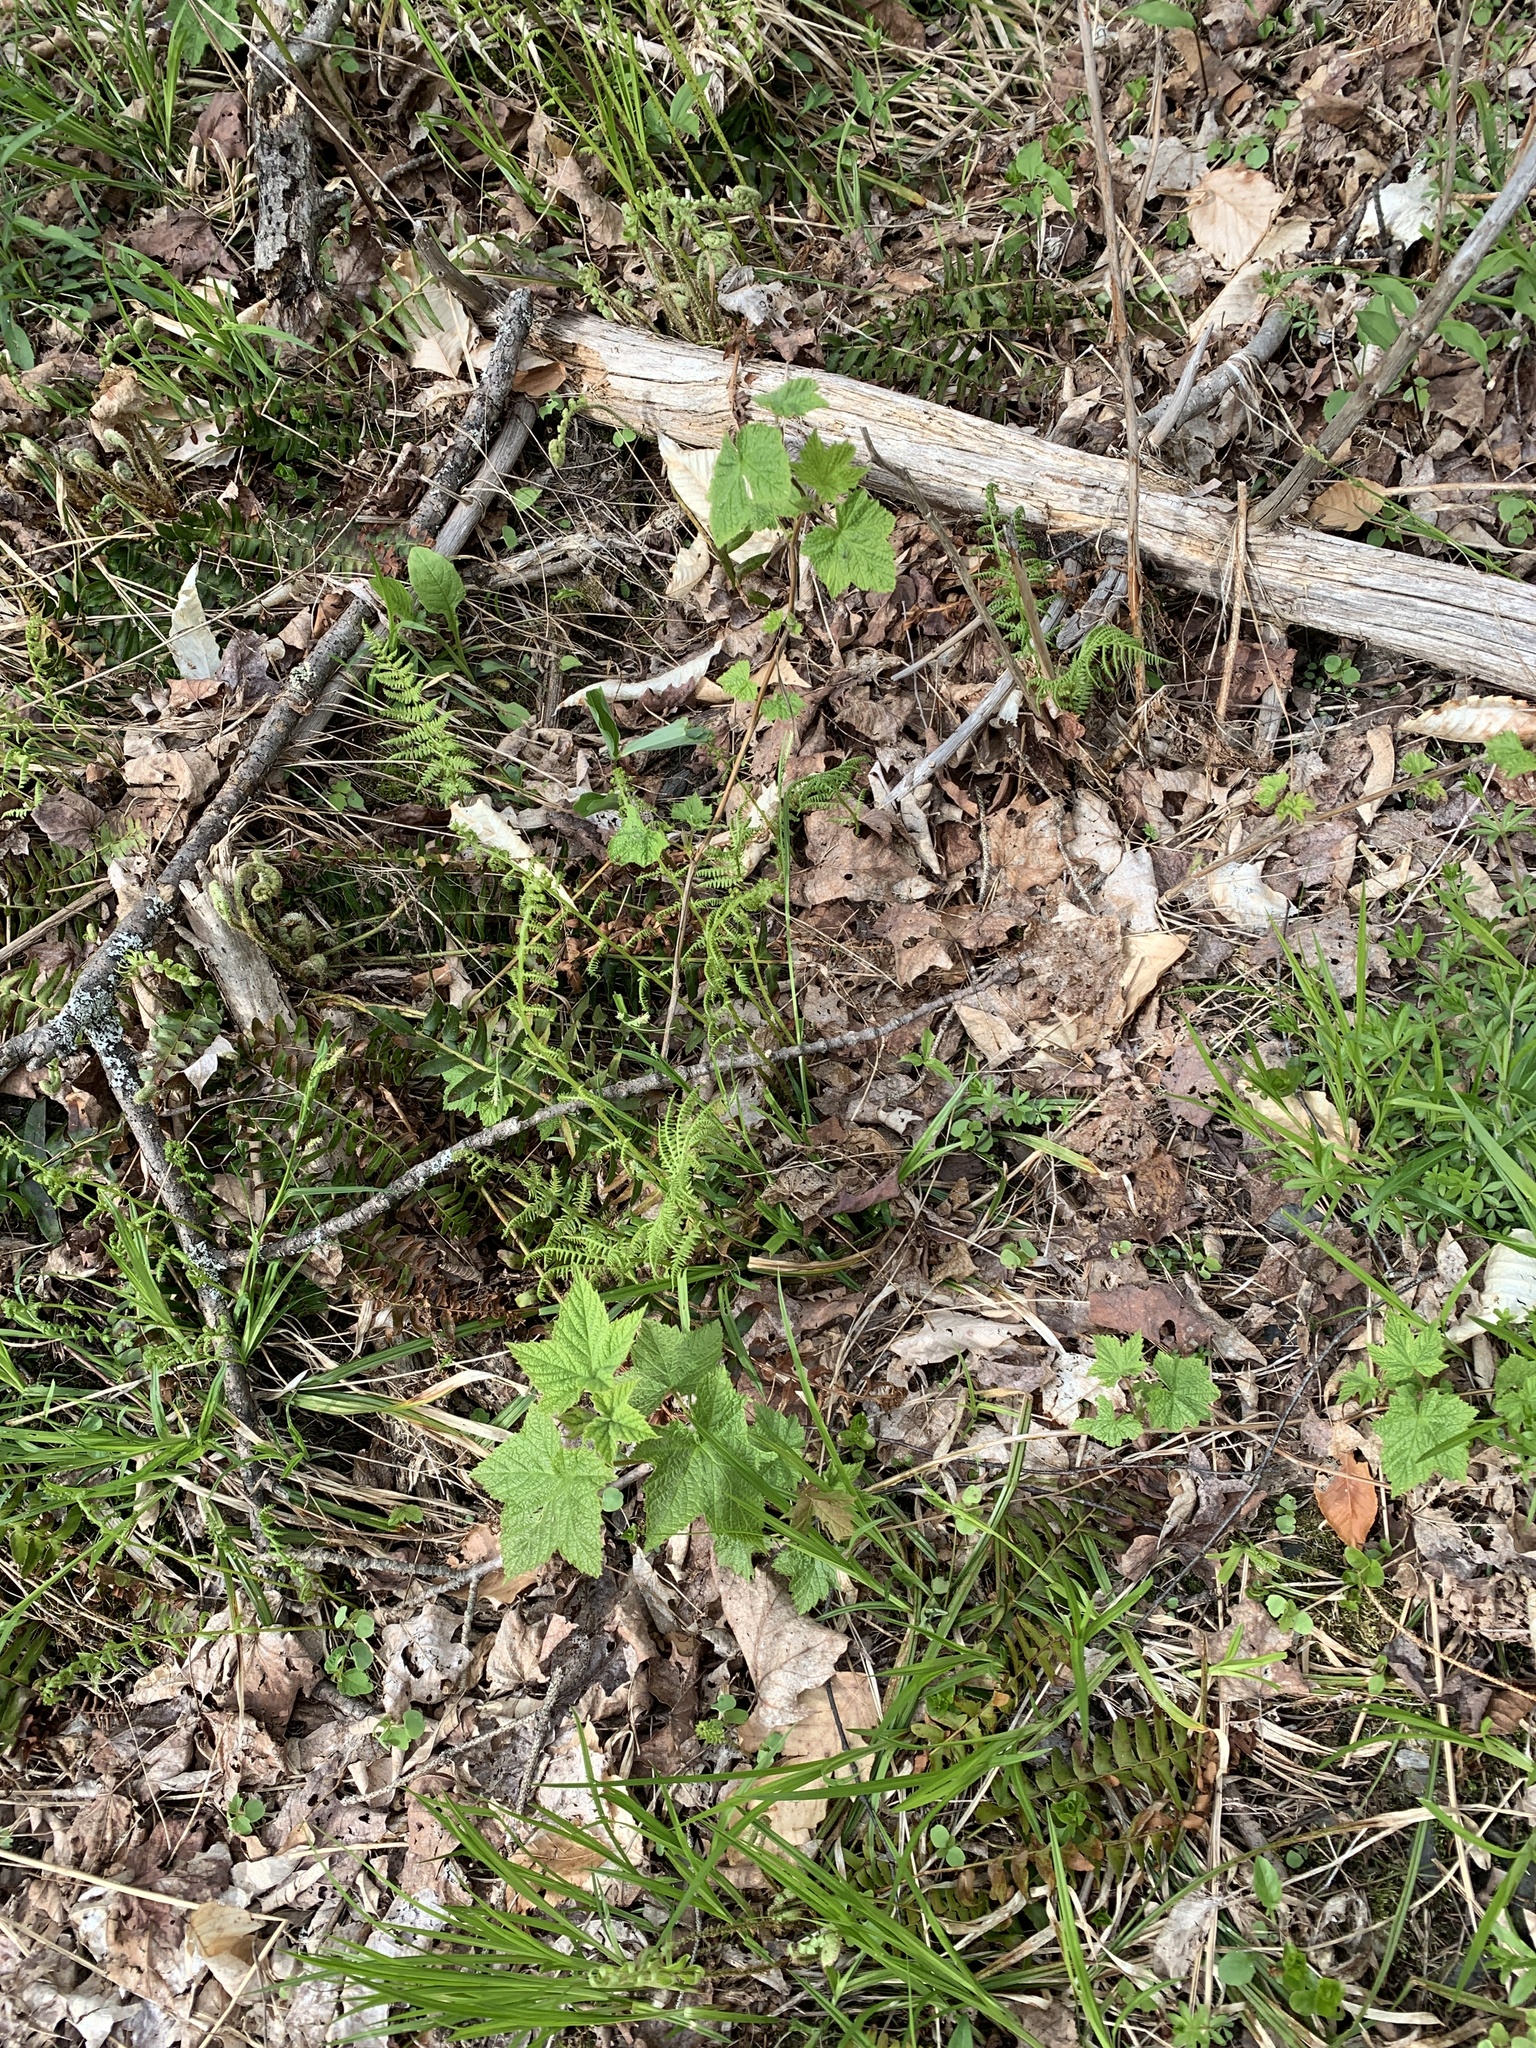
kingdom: Plantae
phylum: Tracheophyta
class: Magnoliopsida
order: Rosales
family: Rosaceae
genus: Rubus
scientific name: Rubus odoratus
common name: Purple-flowered raspberry
